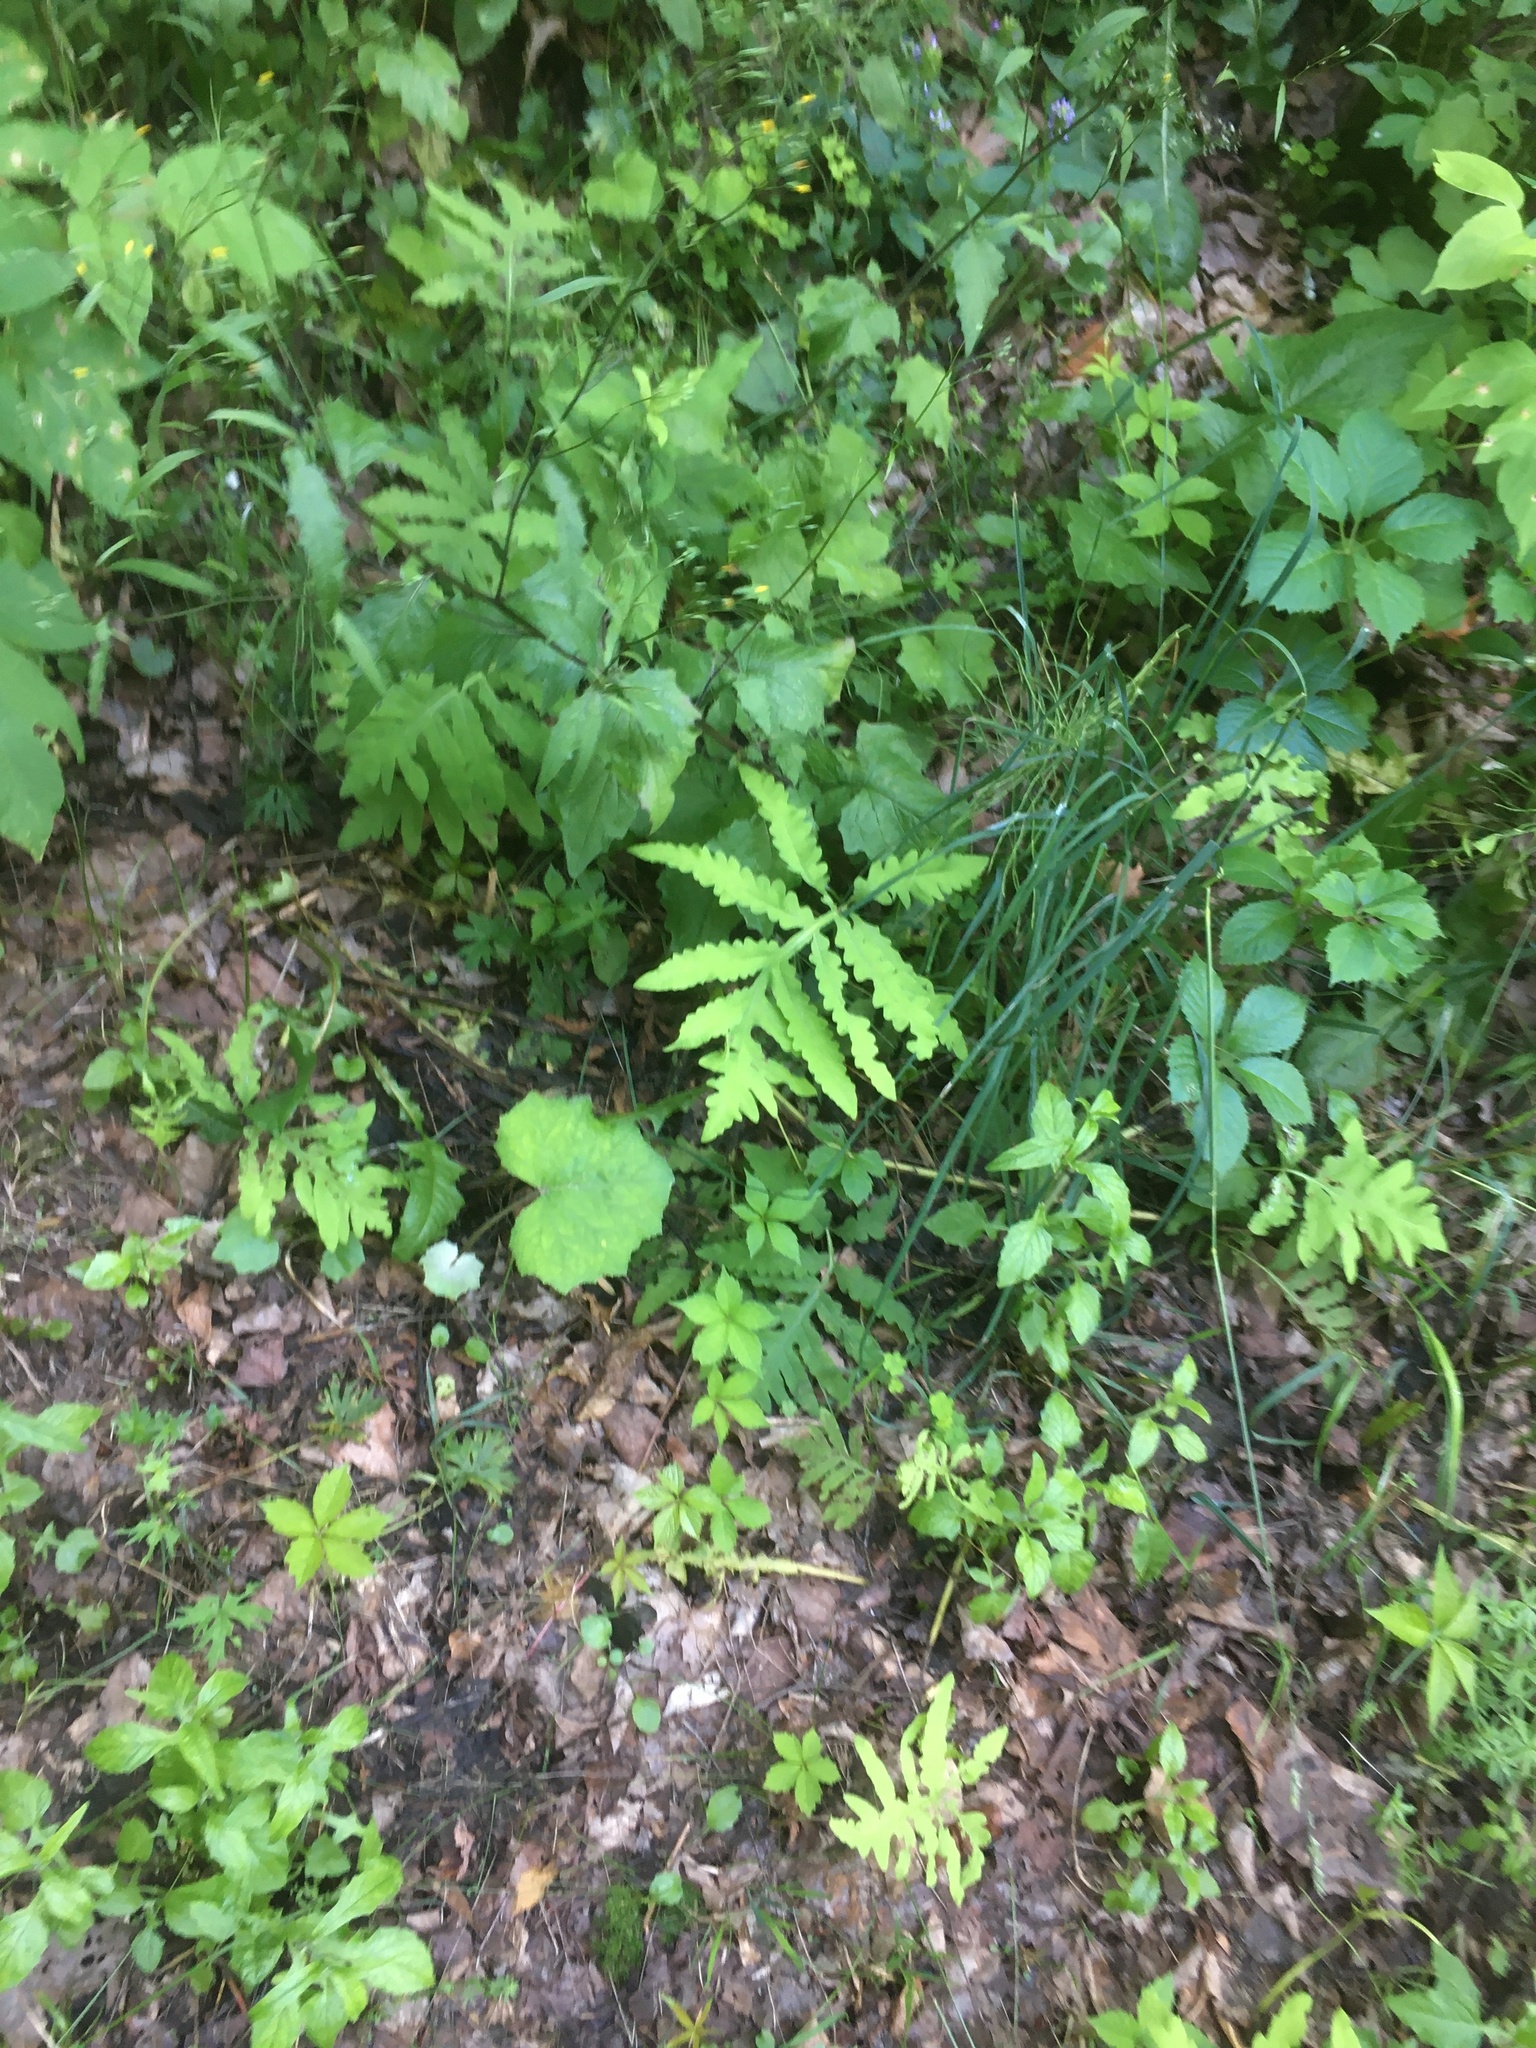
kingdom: Plantae
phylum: Tracheophyta
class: Polypodiopsida
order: Polypodiales
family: Onocleaceae
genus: Onoclea
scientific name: Onoclea sensibilis
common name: Sensitive fern
